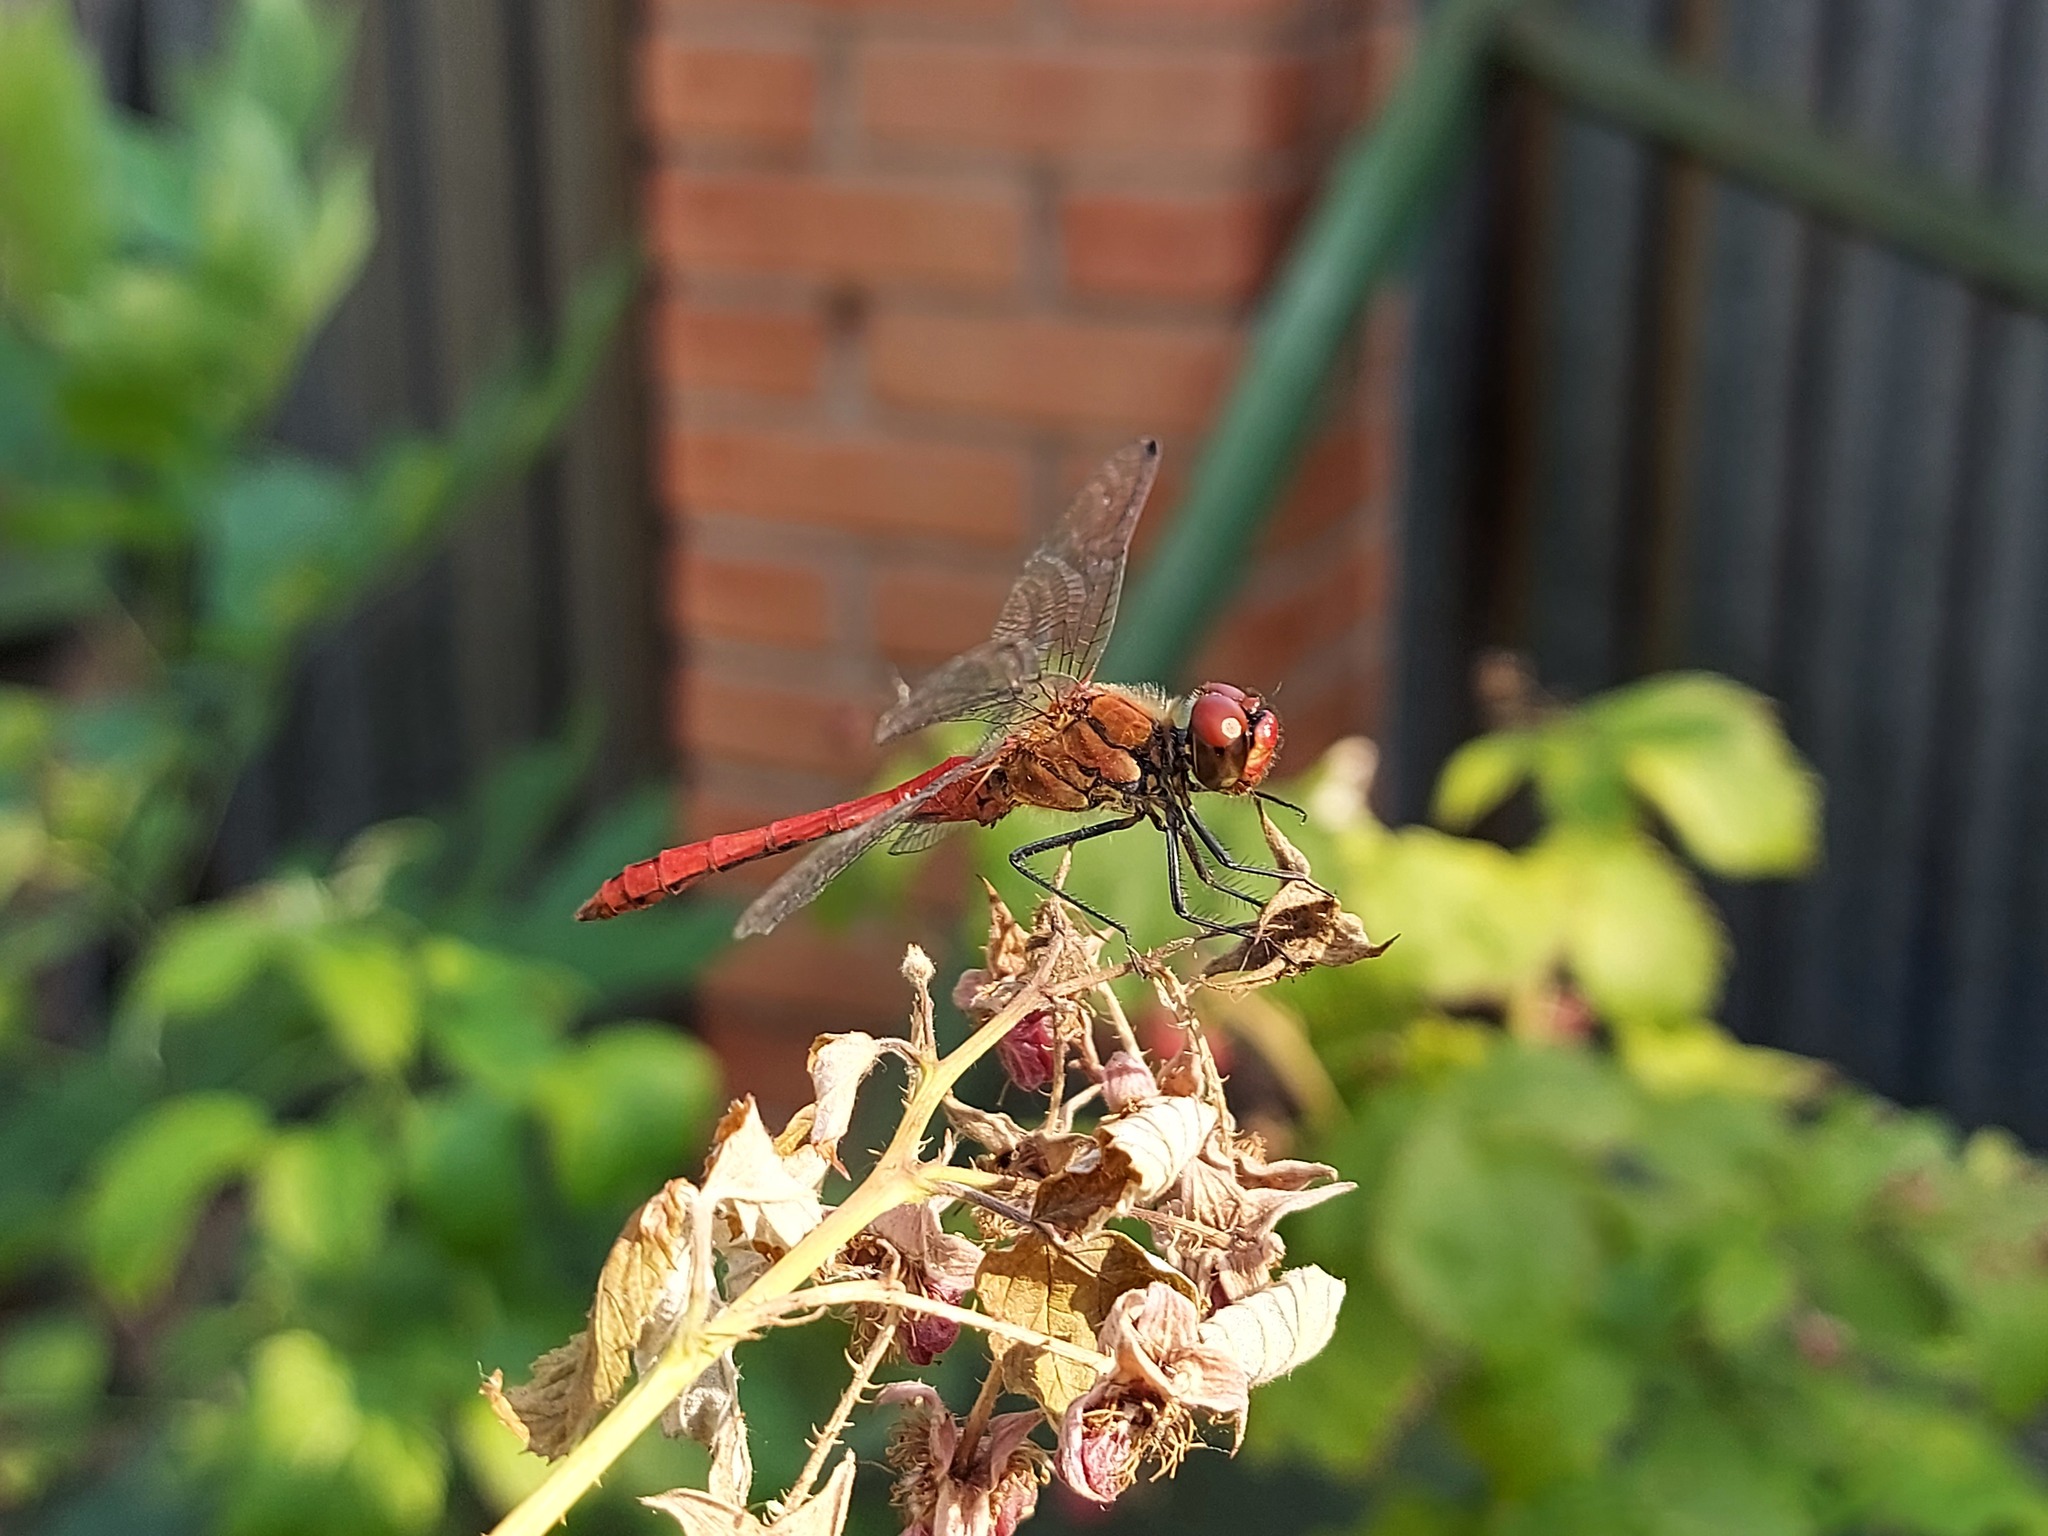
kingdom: Animalia
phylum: Arthropoda
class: Insecta
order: Odonata
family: Libellulidae
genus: Sympetrum
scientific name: Sympetrum sanguineum
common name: Ruddy darter
